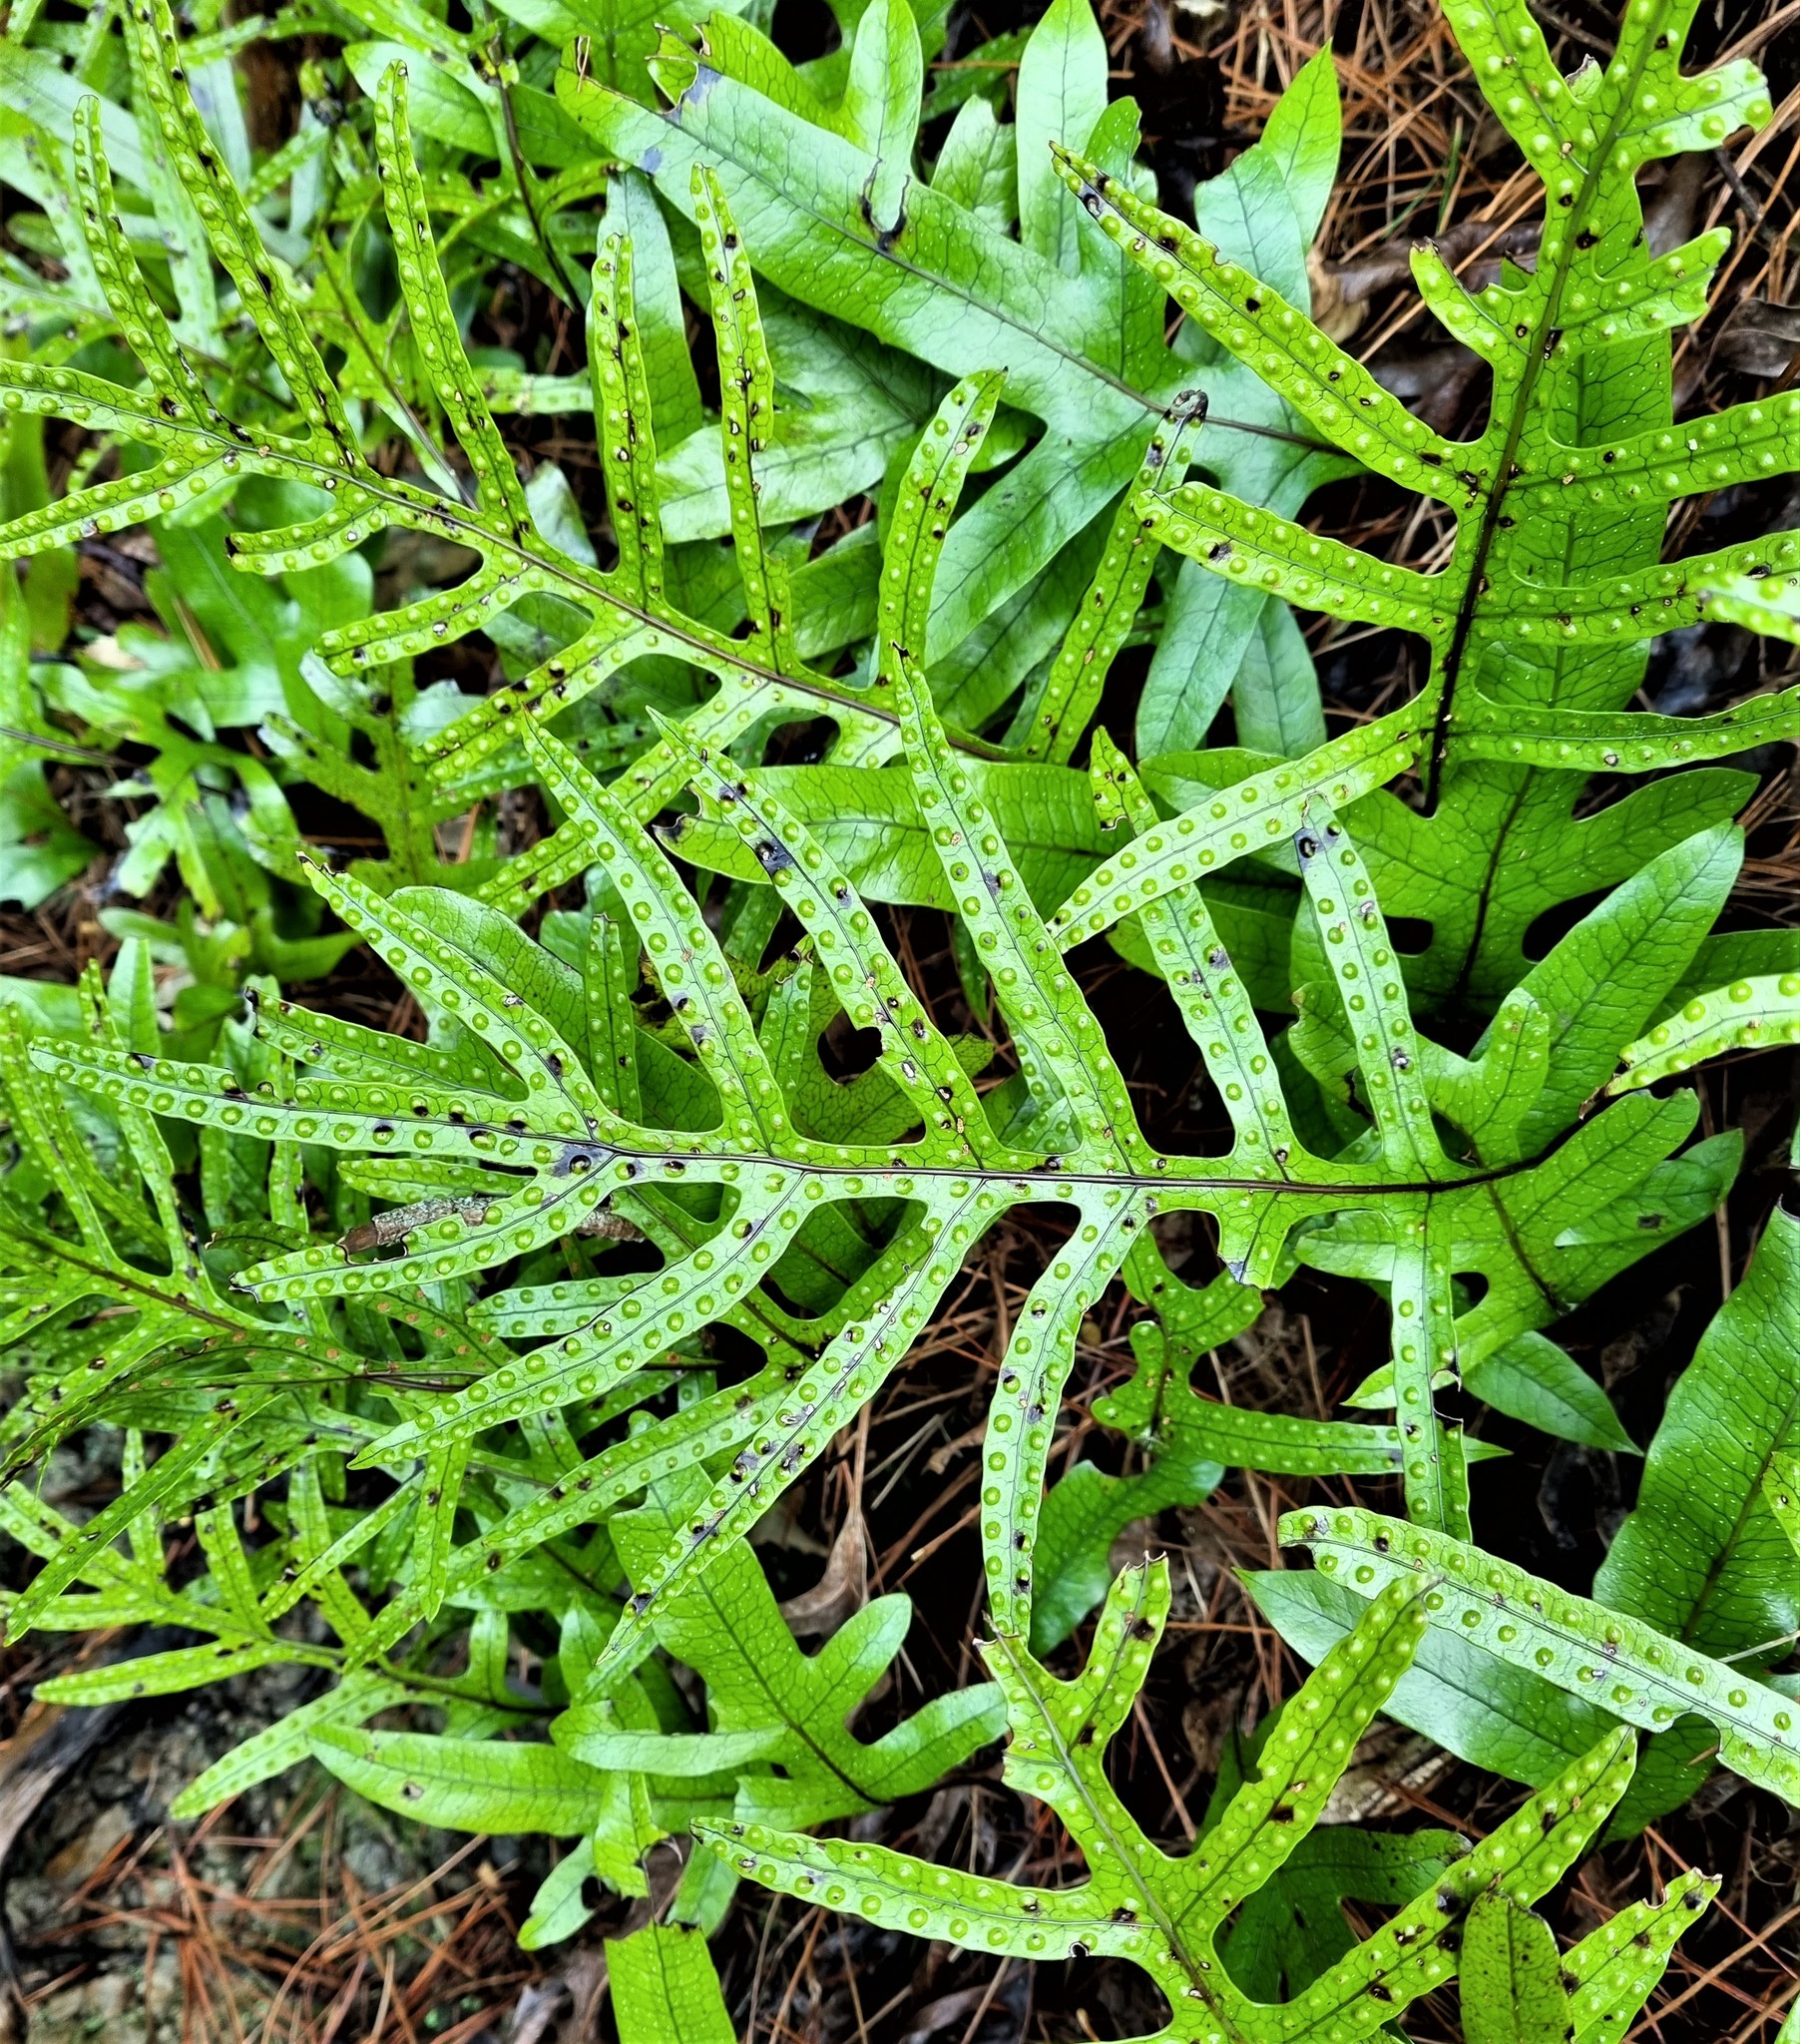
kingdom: Plantae
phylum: Tracheophyta
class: Polypodiopsida
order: Polypodiales
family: Polypodiaceae
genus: Lecanopteris
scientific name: Lecanopteris pustulata
